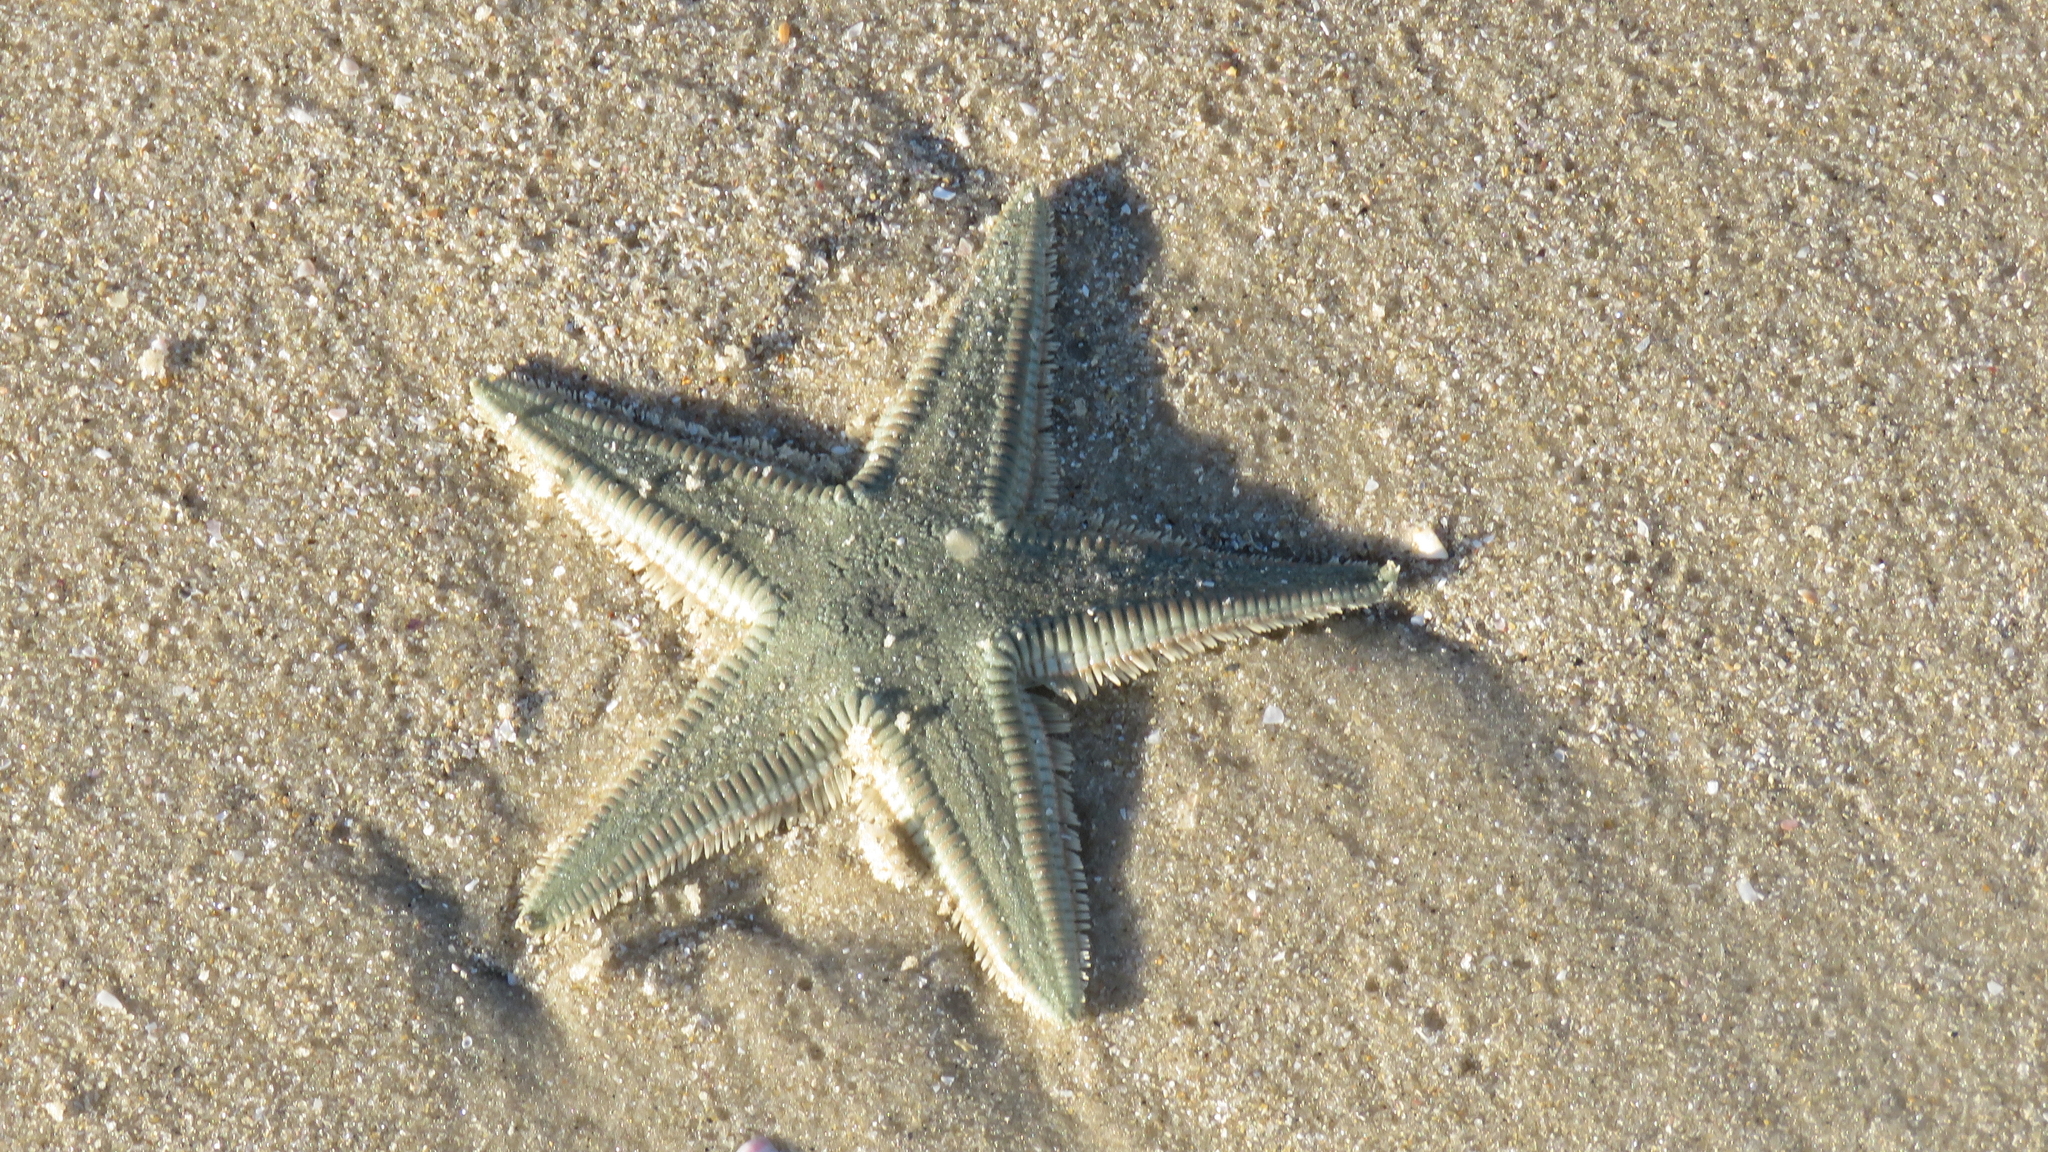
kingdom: Animalia
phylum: Echinodermata
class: Asteroidea
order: Paxillosida
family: Astropectinidae
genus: Astropecten
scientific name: Astropecten marginatus
